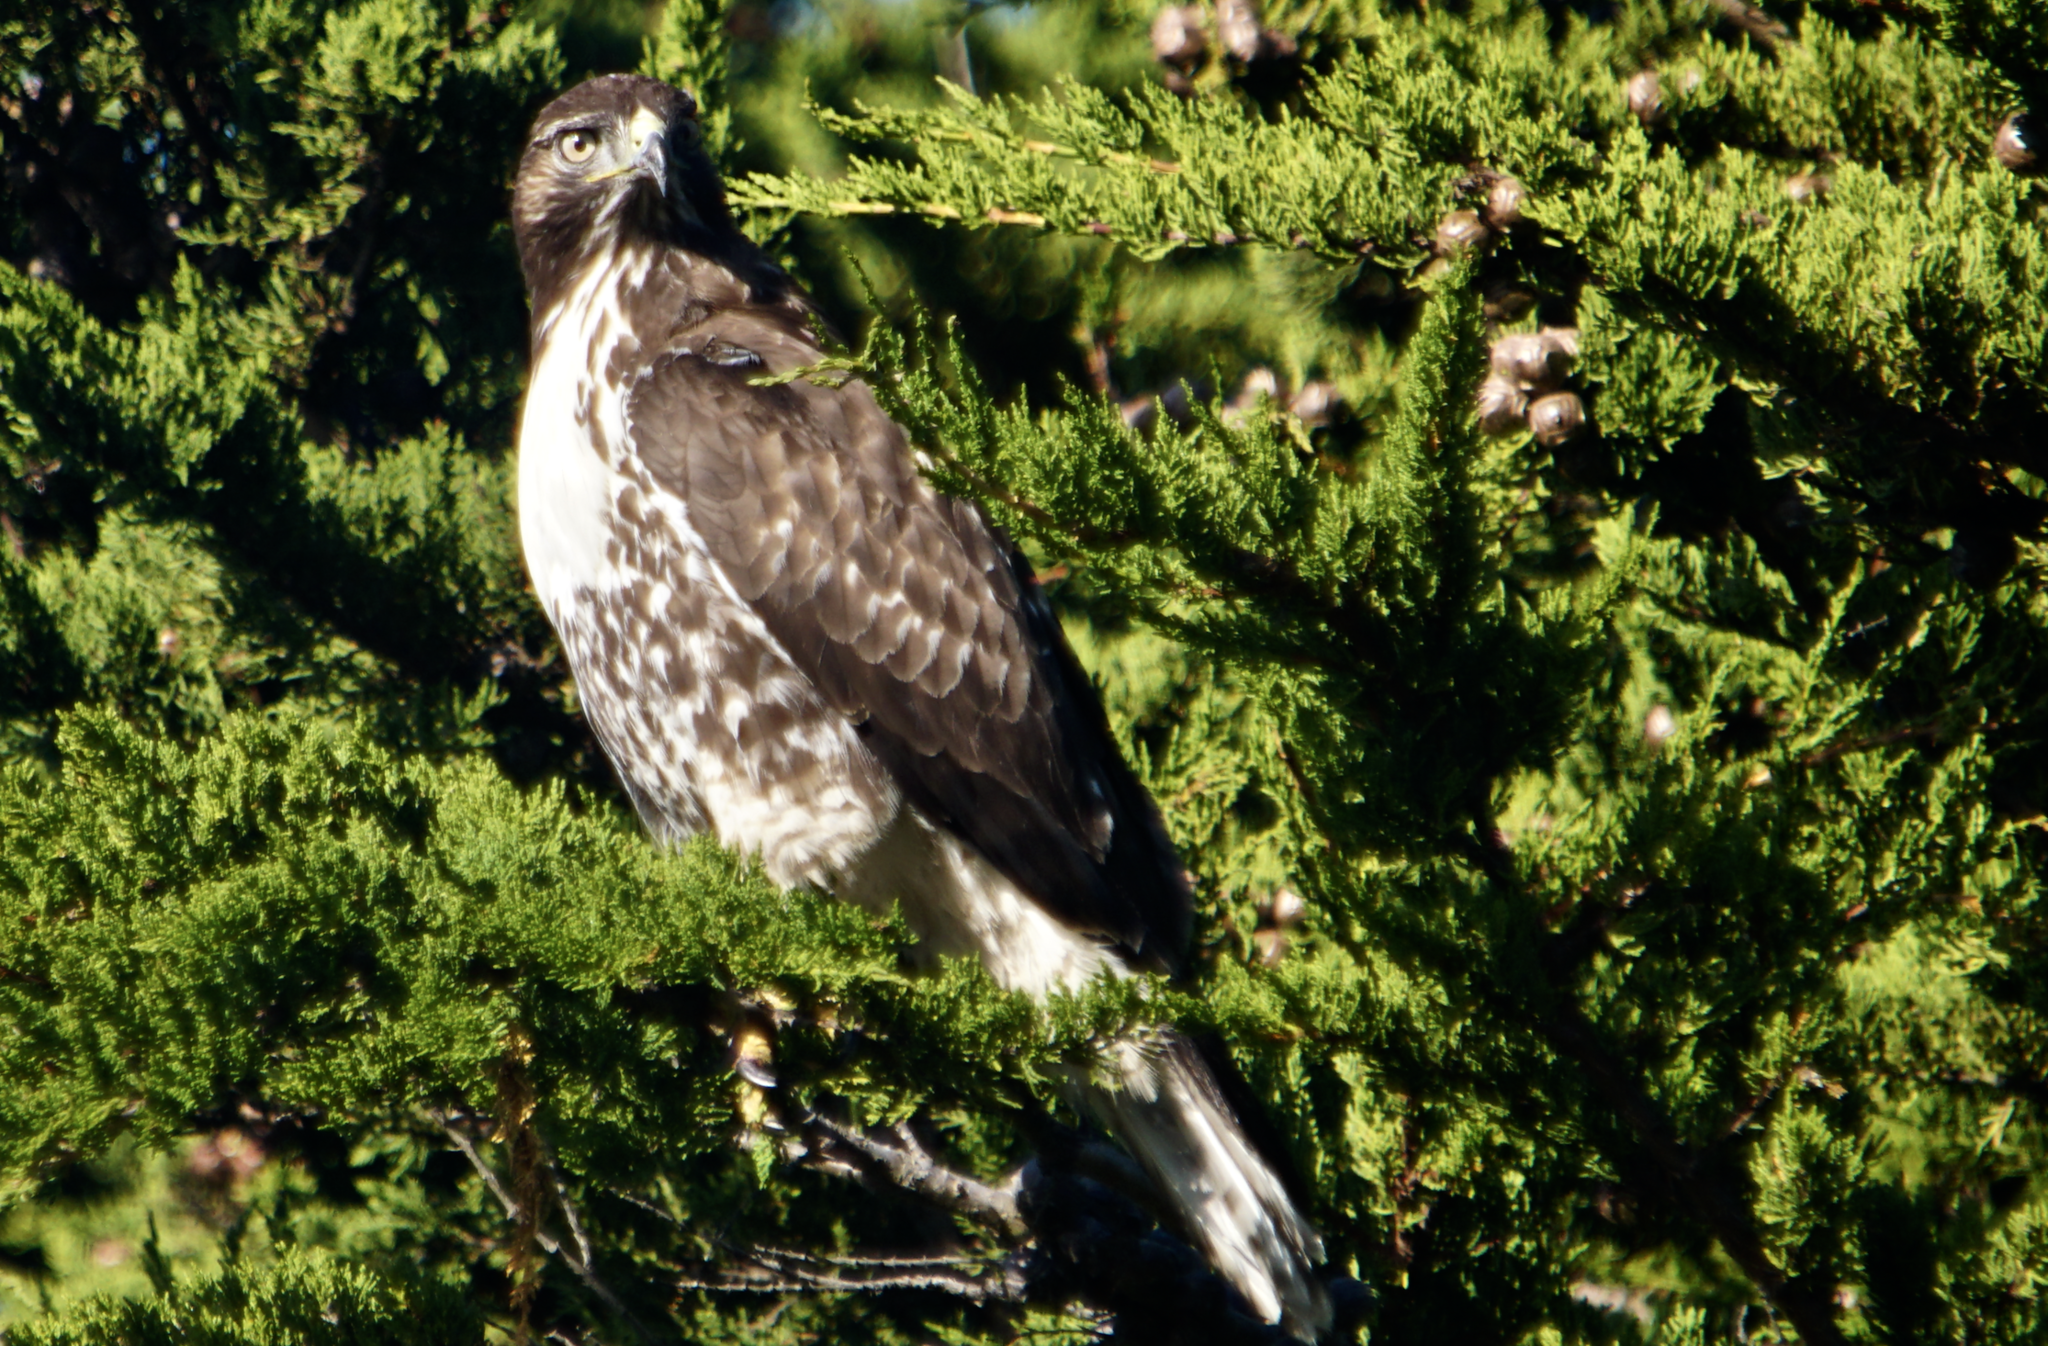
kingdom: Animalia
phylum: Chordata
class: Aves
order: Accipitriformes
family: Accipitridae
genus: Buteo
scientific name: Buteo jamaicensis
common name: Red-tailed hawk
